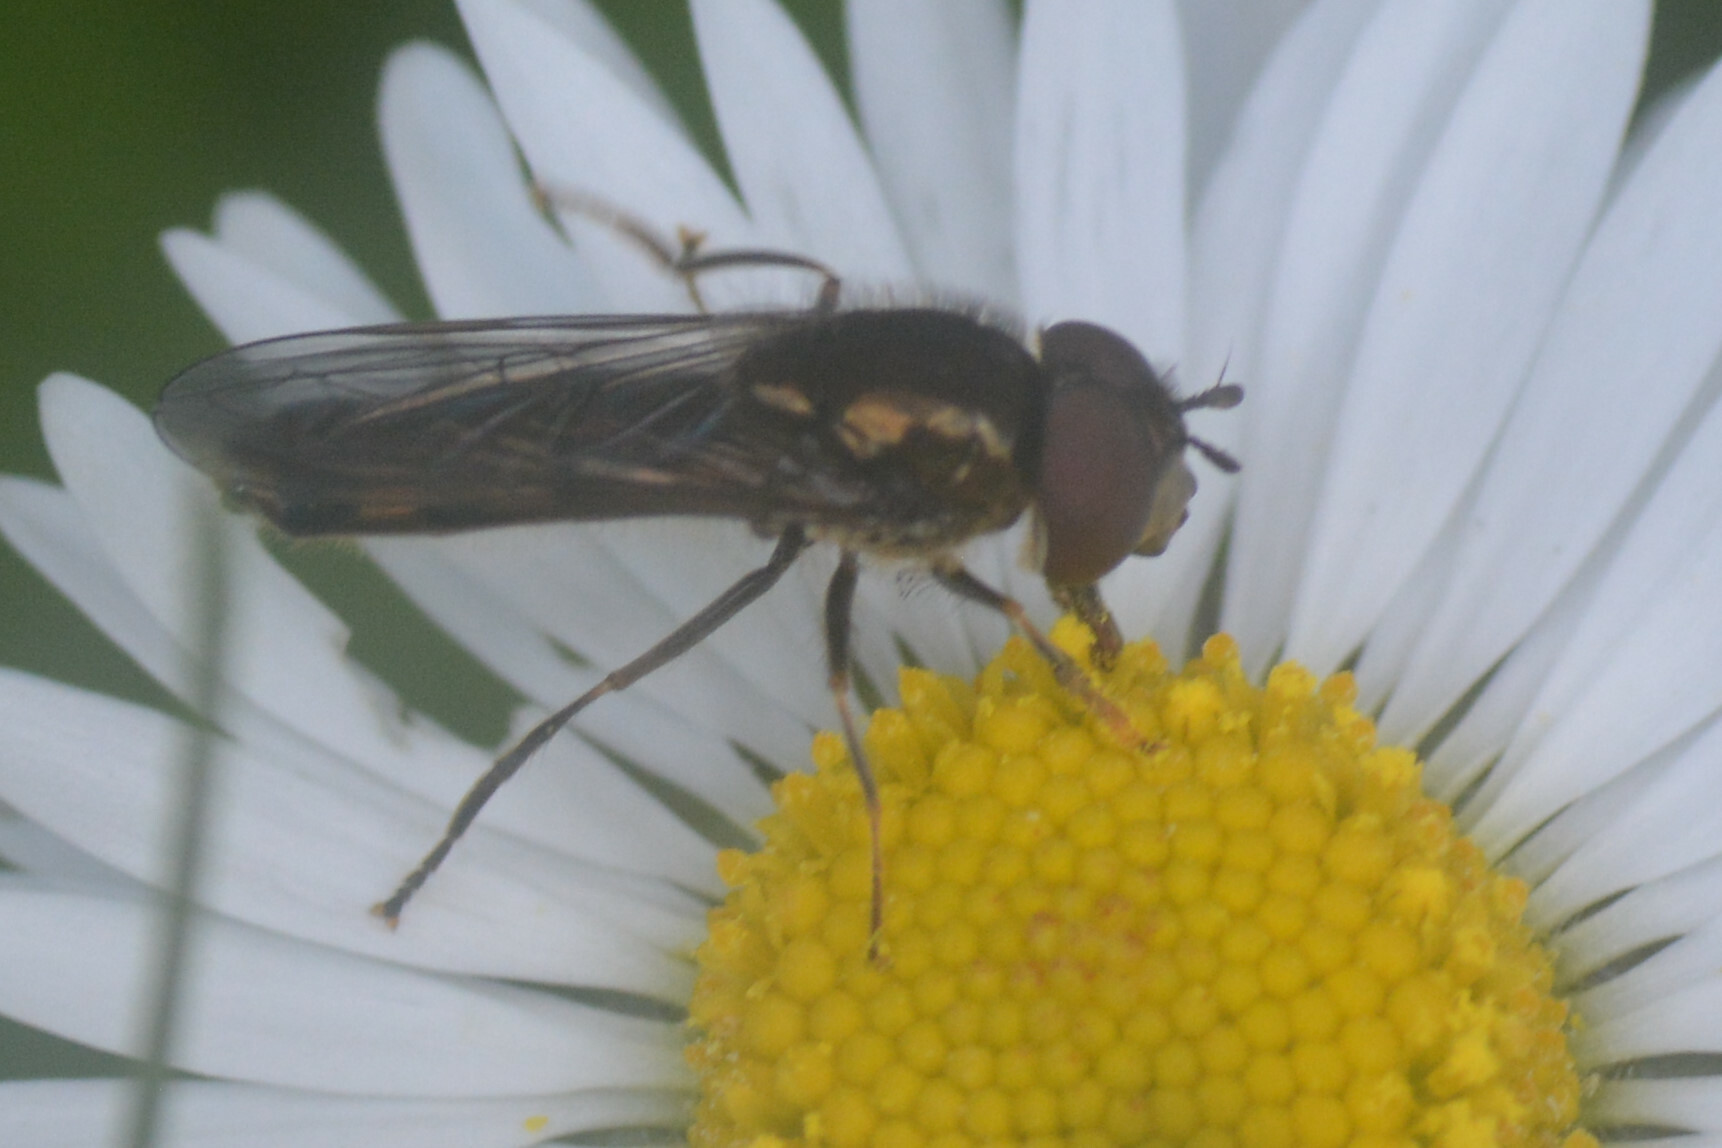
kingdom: Animalia
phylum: Arthropoda
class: Insecta
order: Diptera
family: Syrphidae
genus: Platycheirus
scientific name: Platycheirus albimanus
